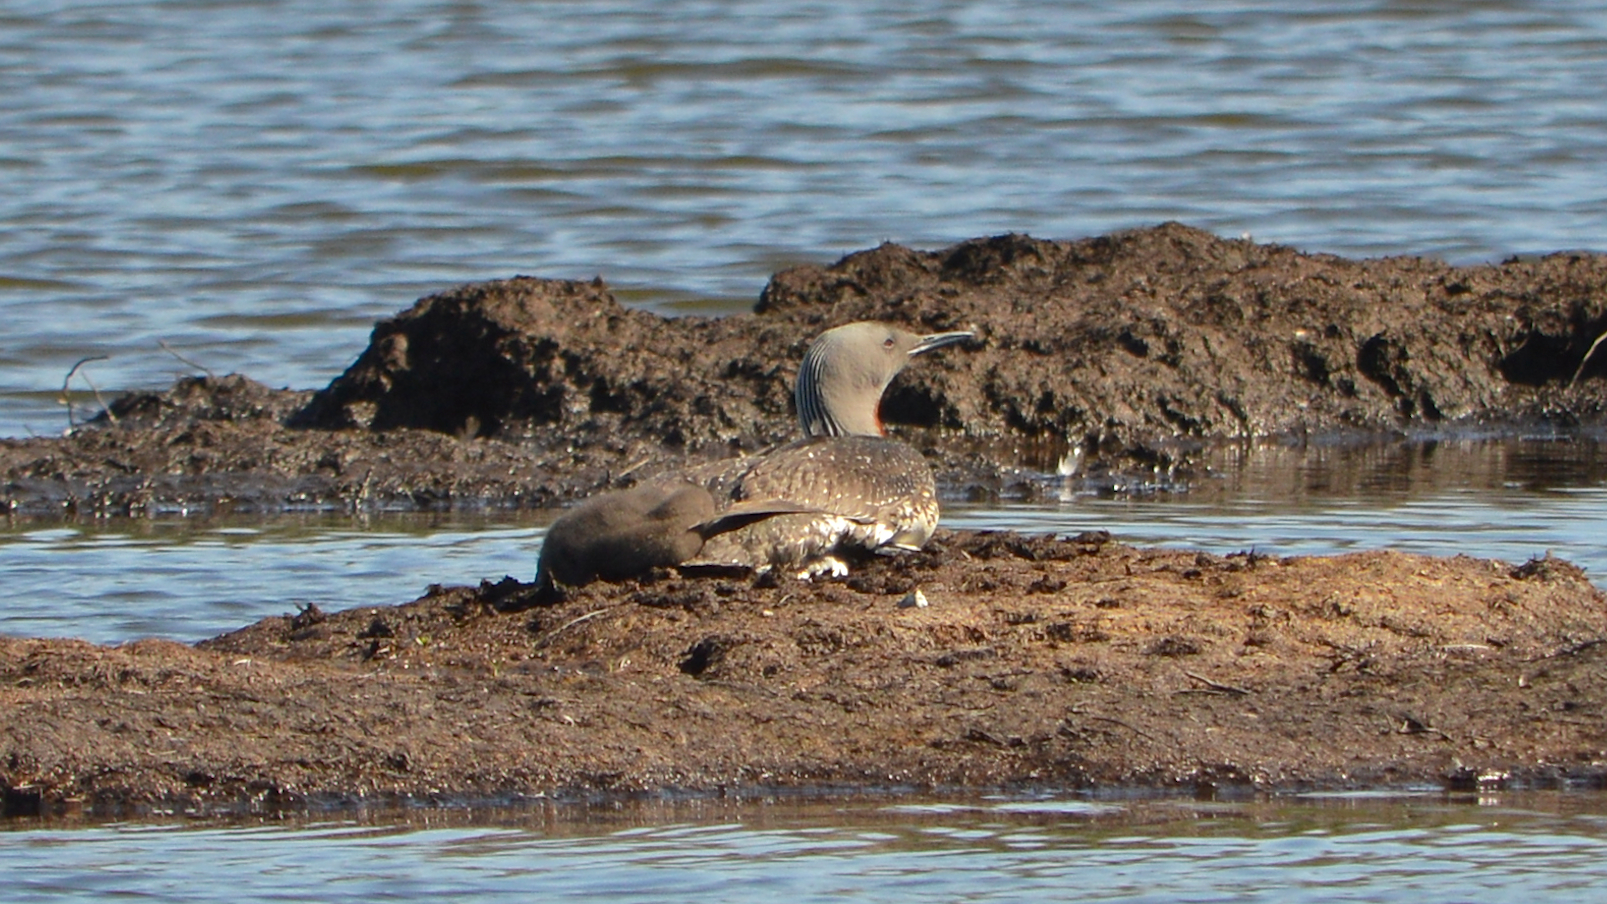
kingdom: Animalia
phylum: Chordata
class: Aves
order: Gaviiformes
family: Gaviidae
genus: Gavia
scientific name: Gavia stellata
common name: Red-throated loon
